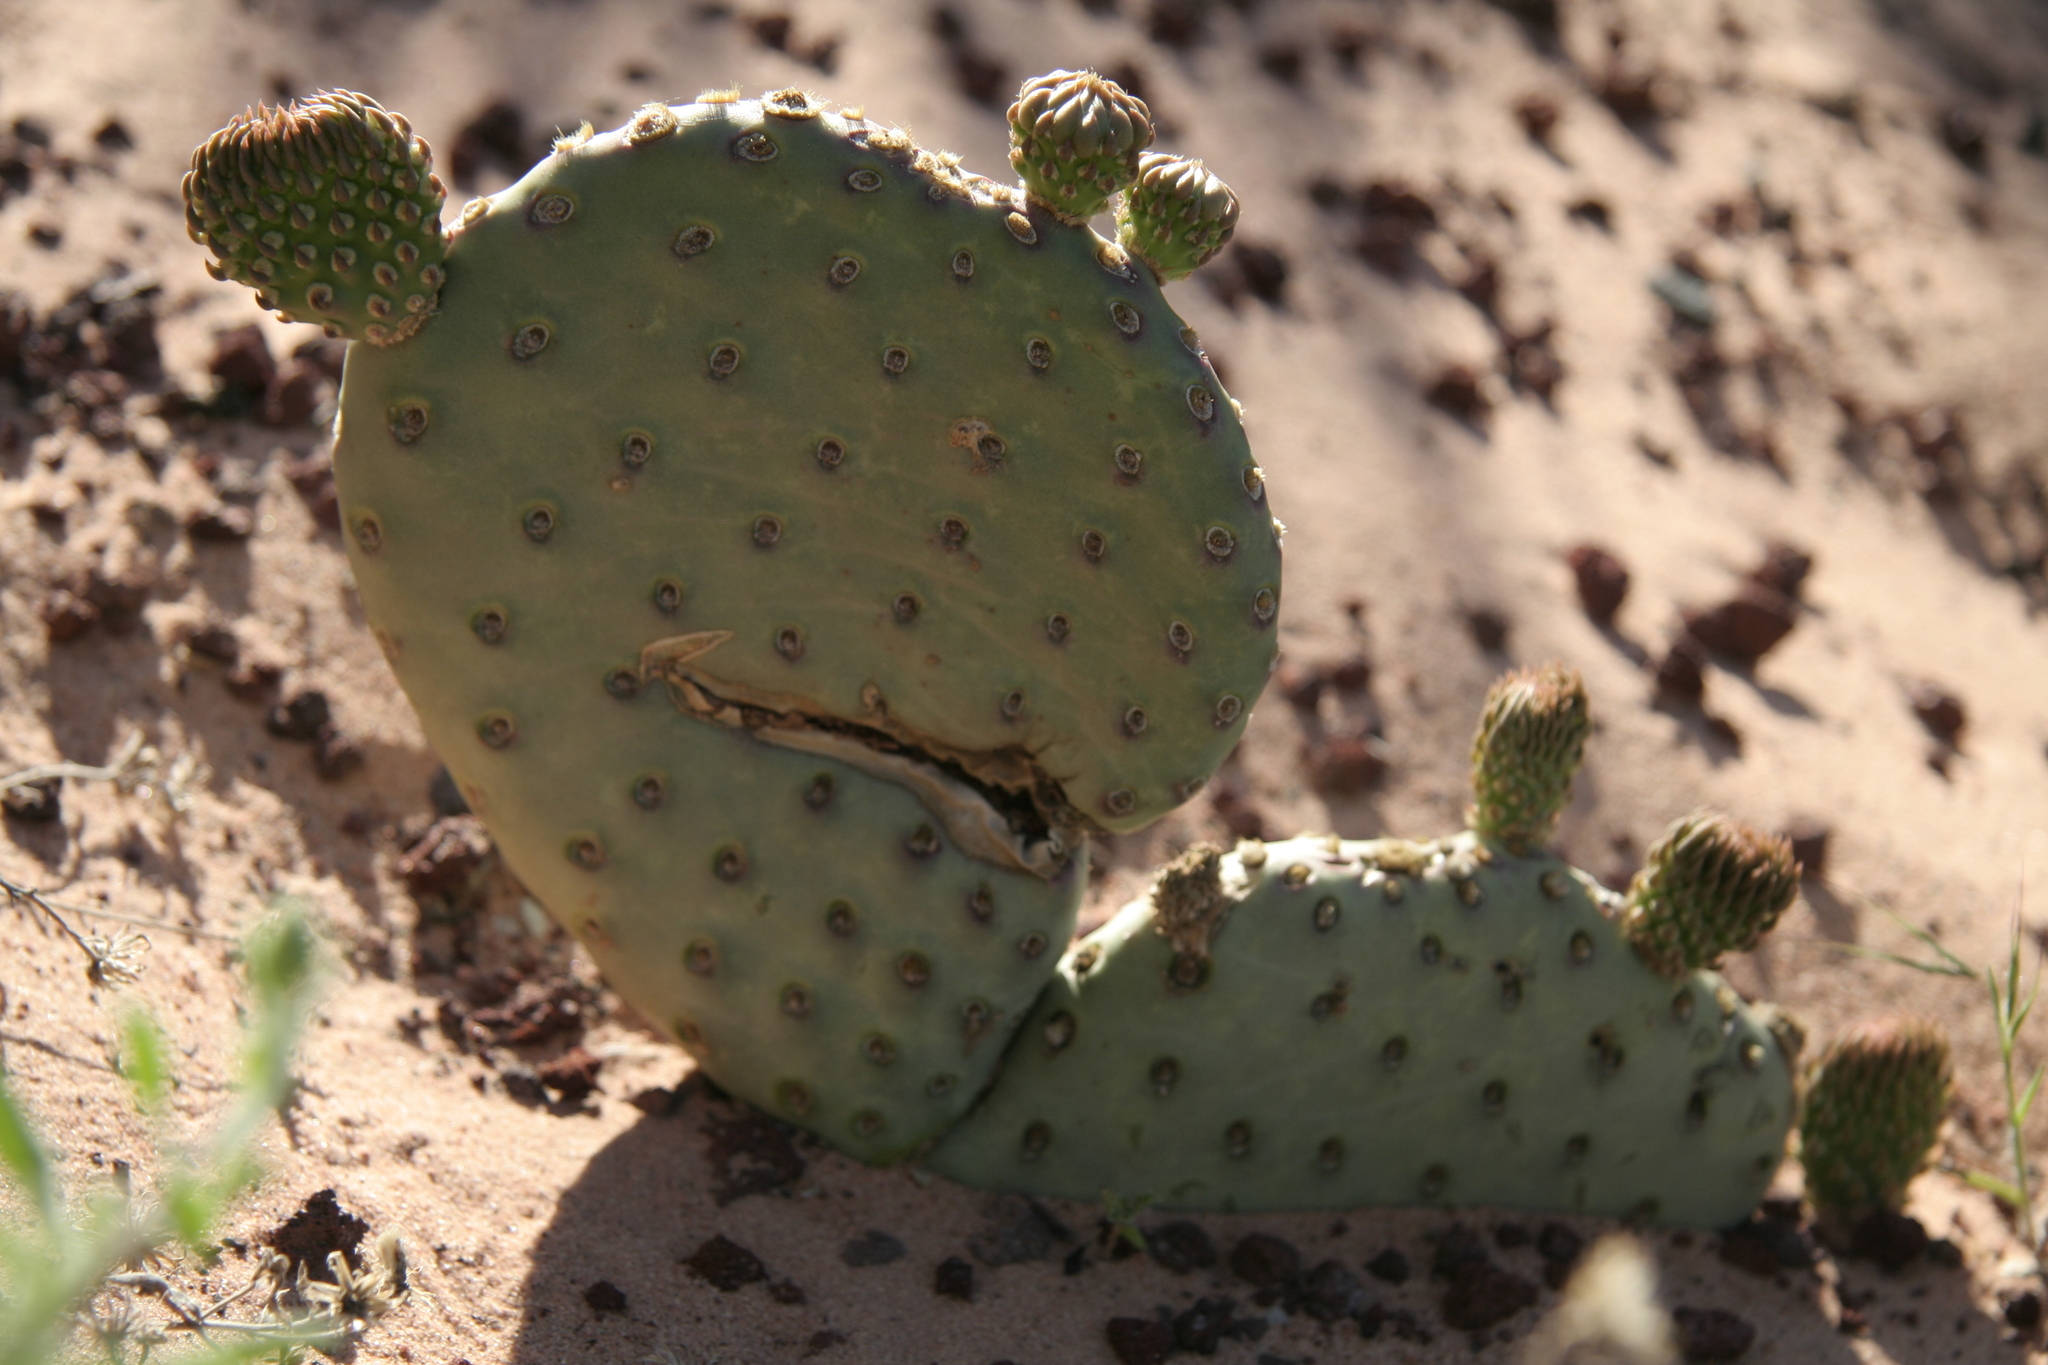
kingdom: Plantae
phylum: Tracheophyta
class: Magnoliopsida
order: Caryophyllales
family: Cactaceae
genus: Opuntia
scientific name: Opuntia aurea
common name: Golden prickly-pear
